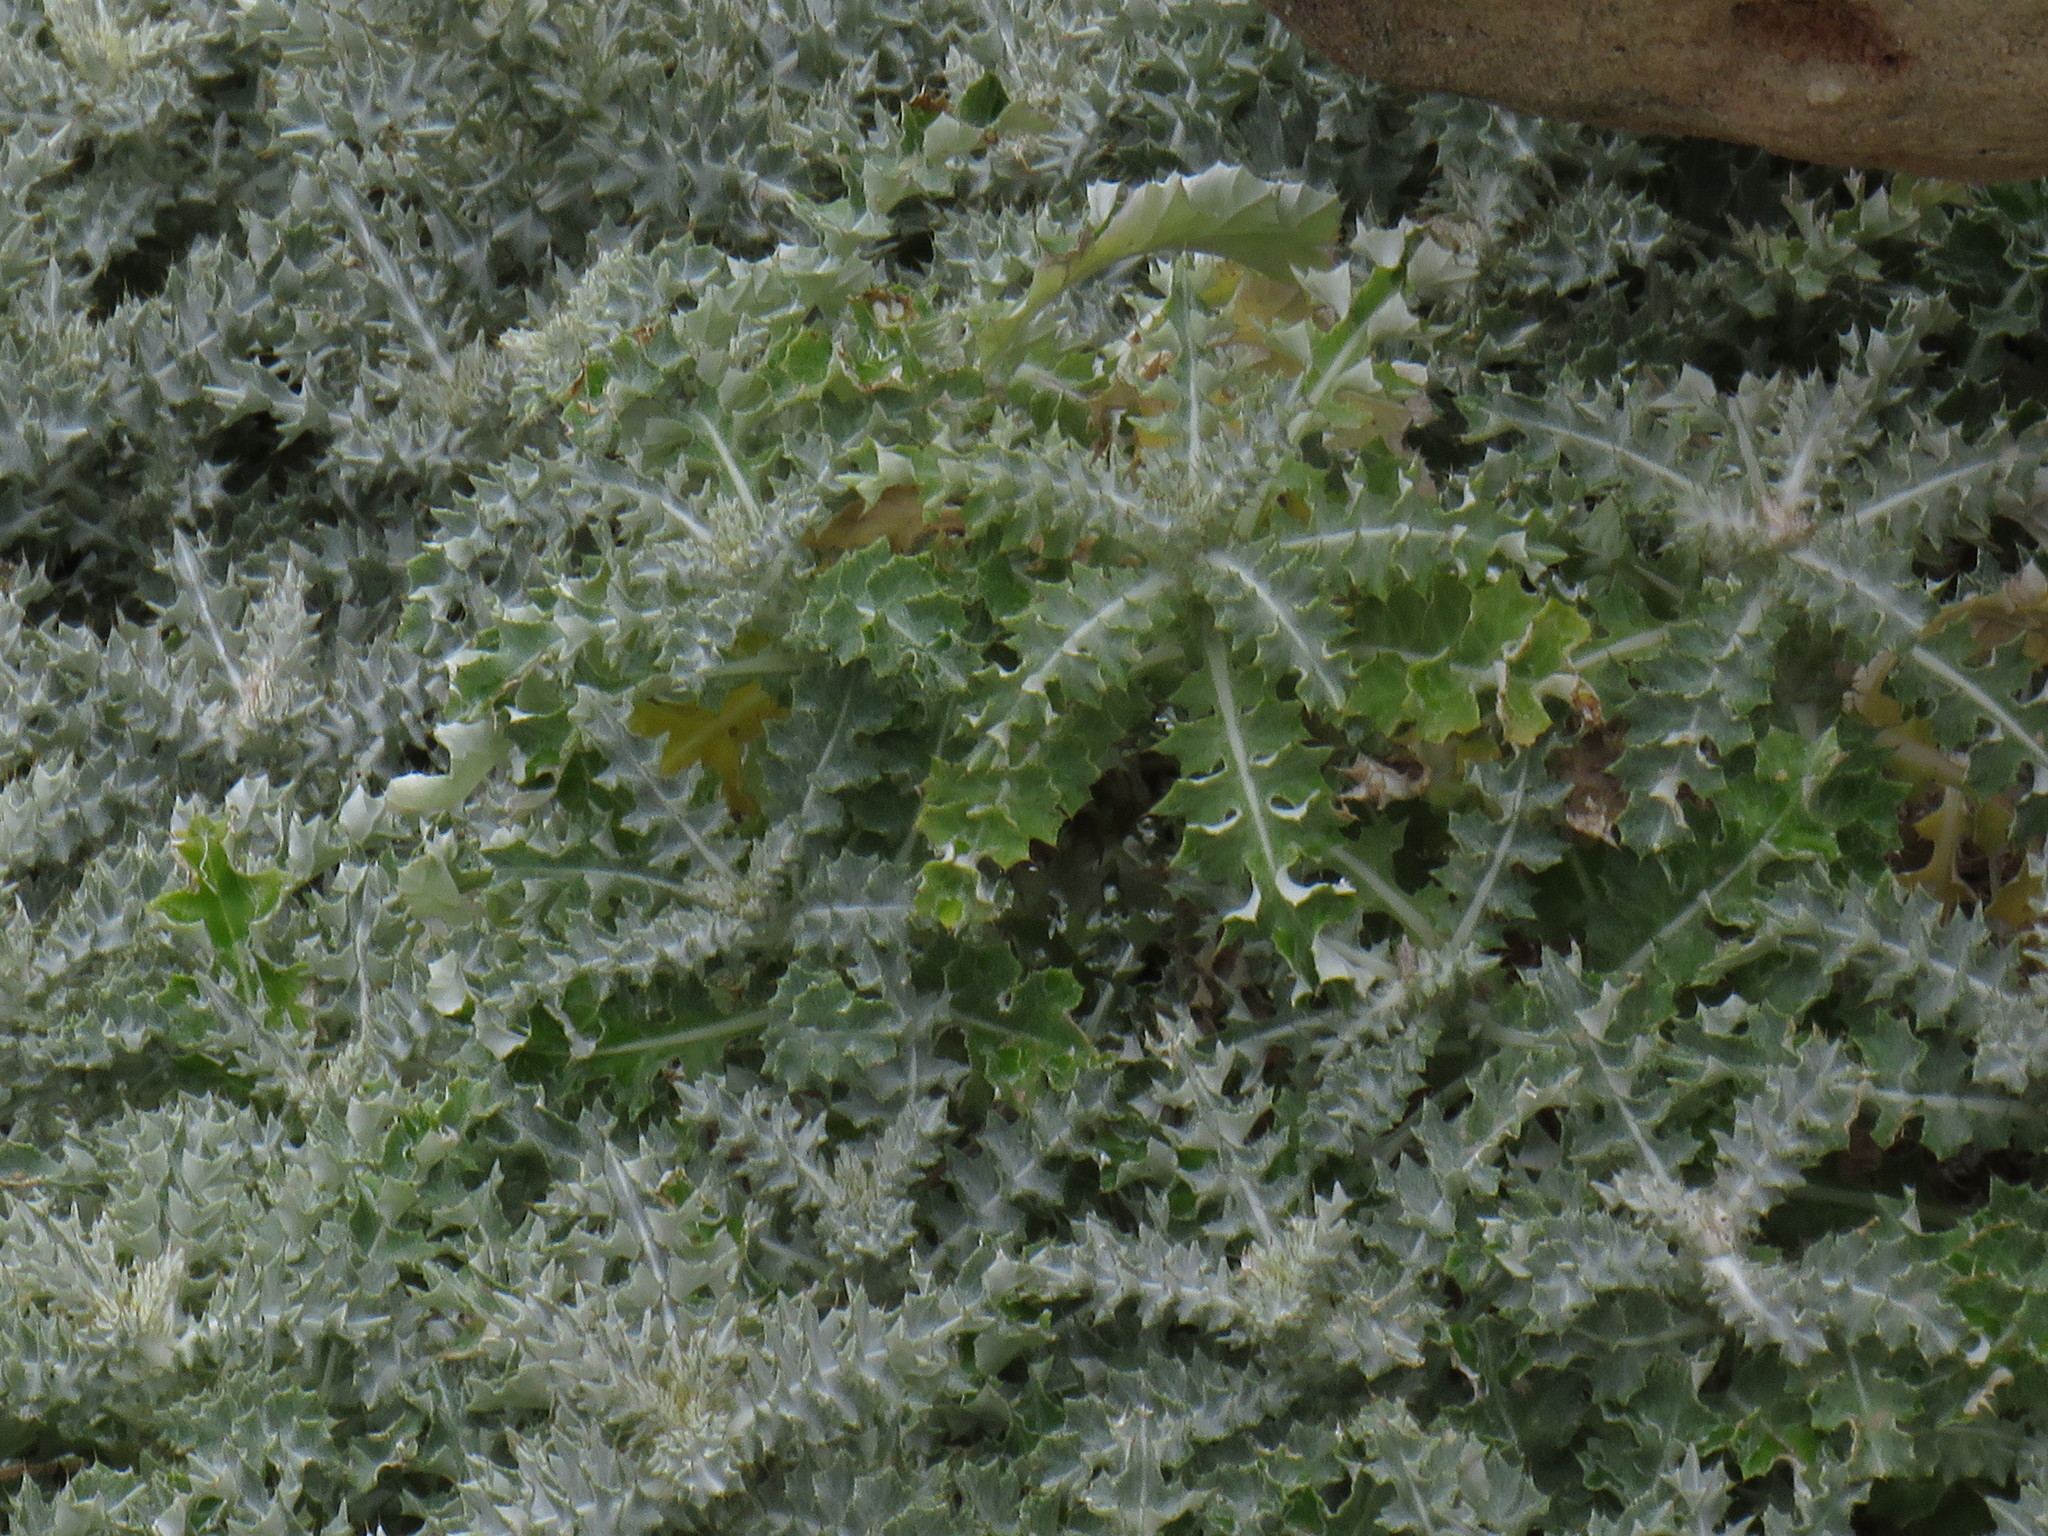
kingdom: Plantae
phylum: Tracheophyta
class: Magnoliopsida
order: Asterales
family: Asteraceae
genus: Berkheya
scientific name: Berkheya rigida
